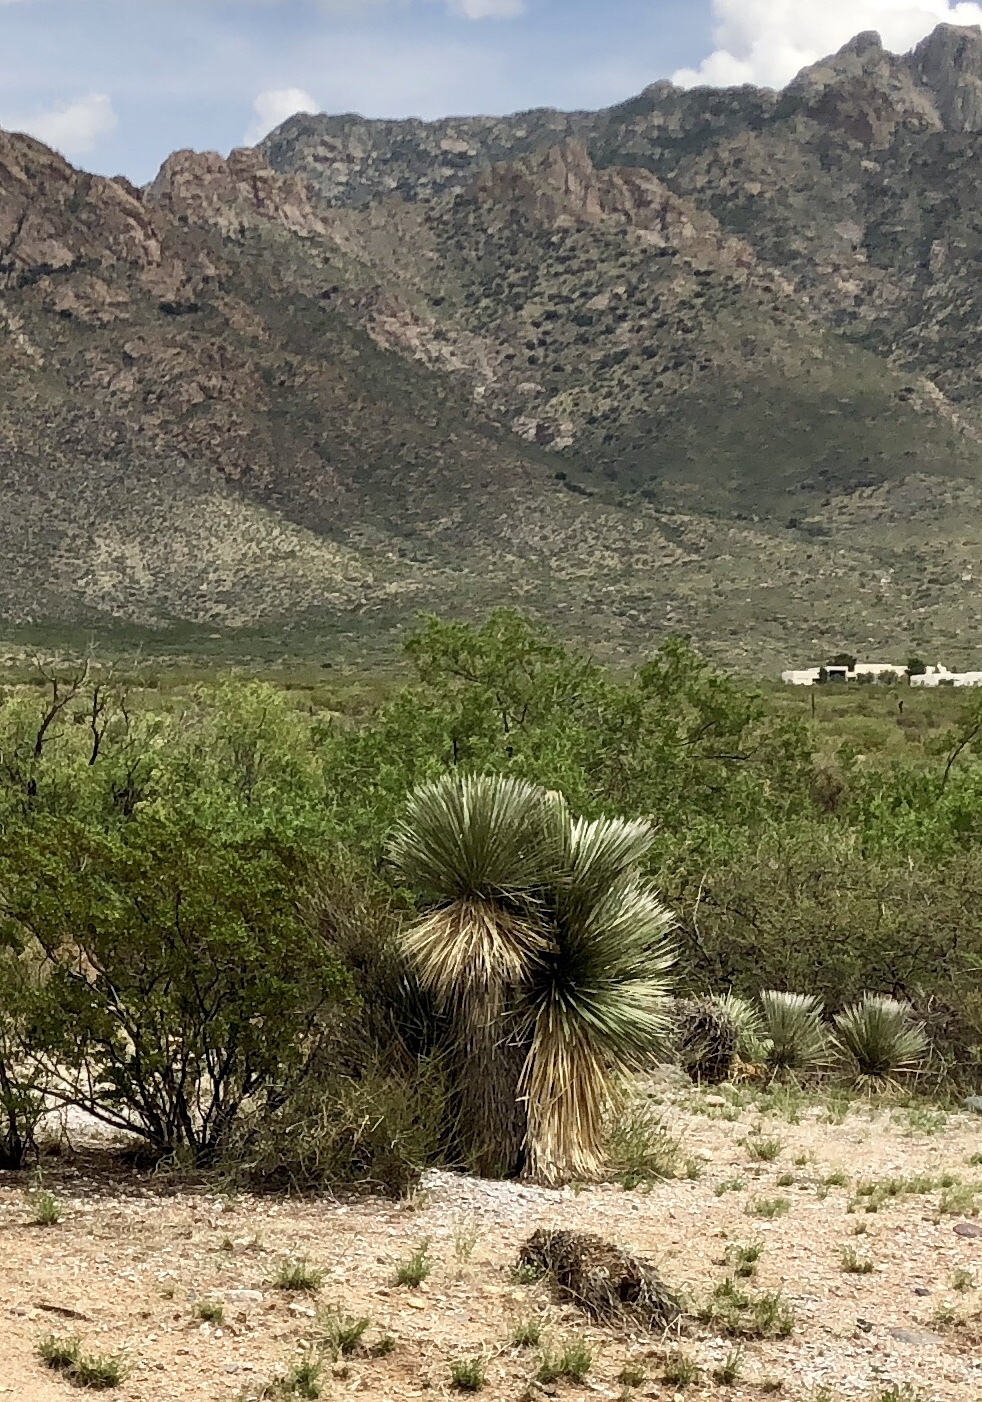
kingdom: Plantae
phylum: Tracheophyta
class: Liliopsida
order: Asparagales
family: Asparagaceae
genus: Yucca
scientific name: Yucca elata
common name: Palmella
